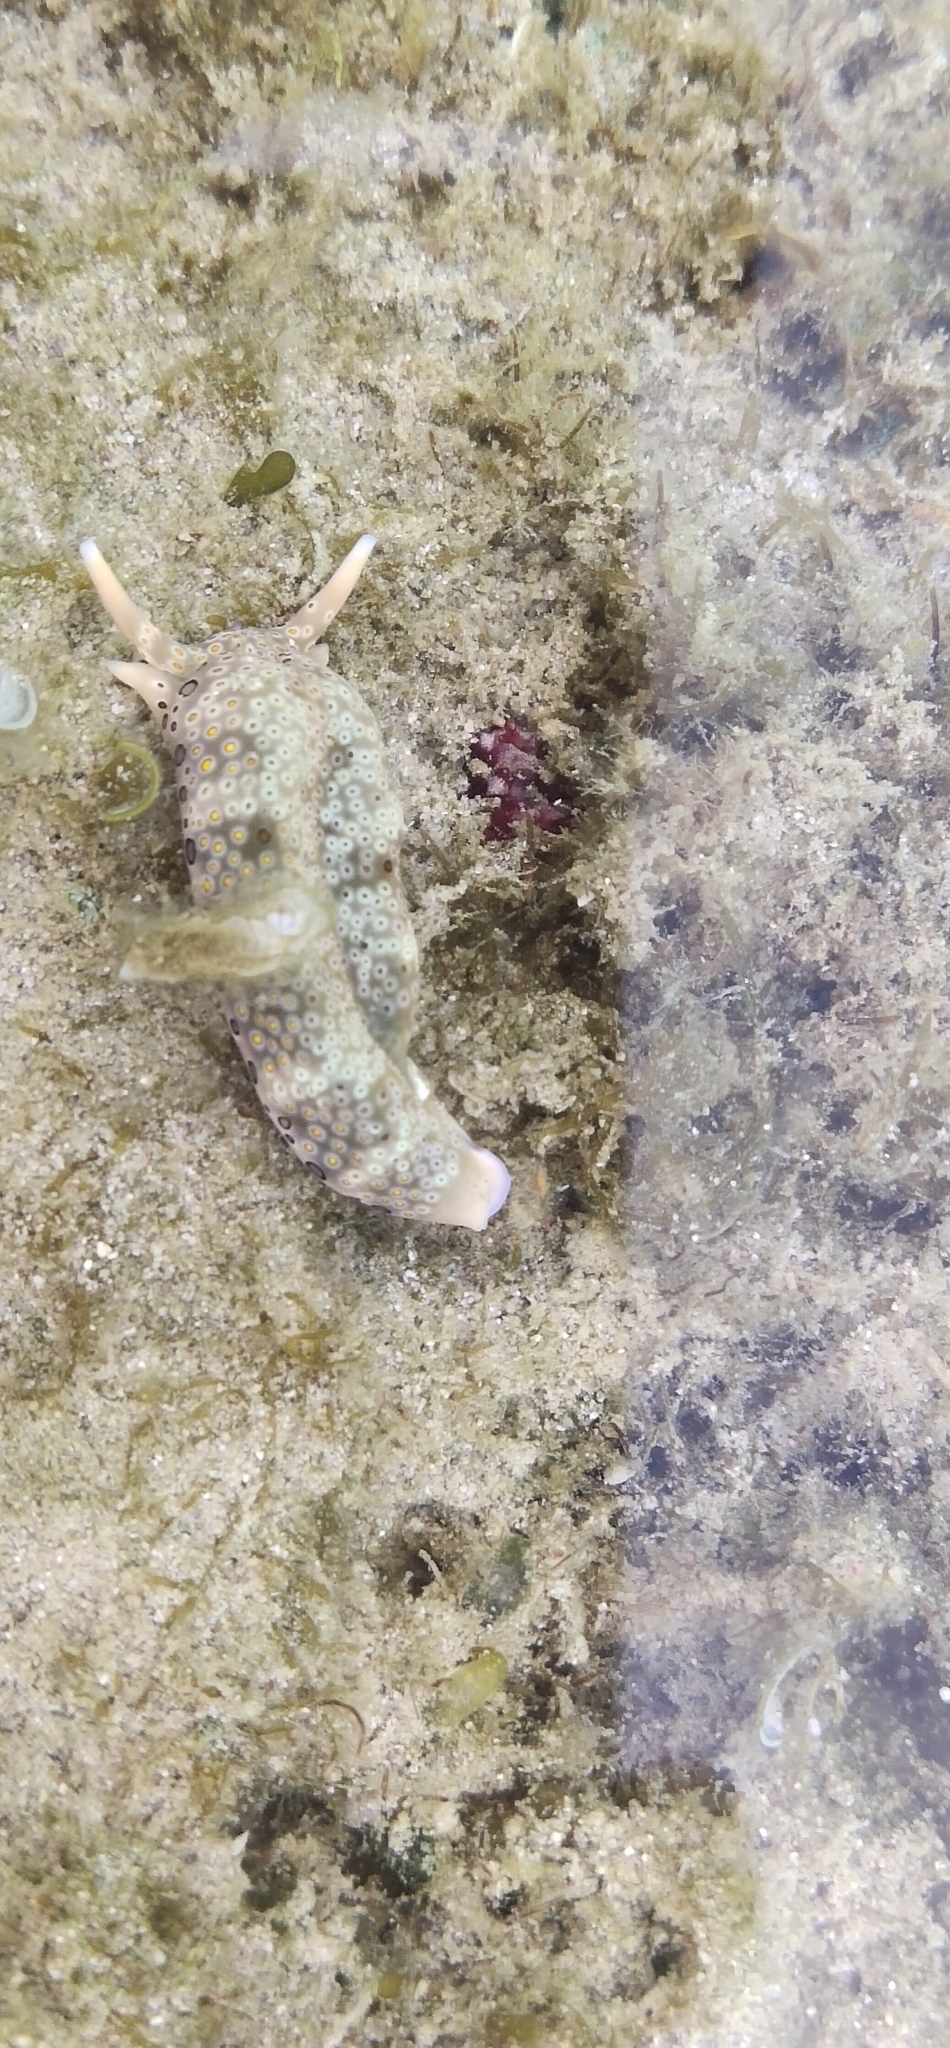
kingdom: Animalia
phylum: Mollusca
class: Gastropoda
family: Plakobranchidae
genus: Plakobranchus
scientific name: Plakobranchus ocellatus
